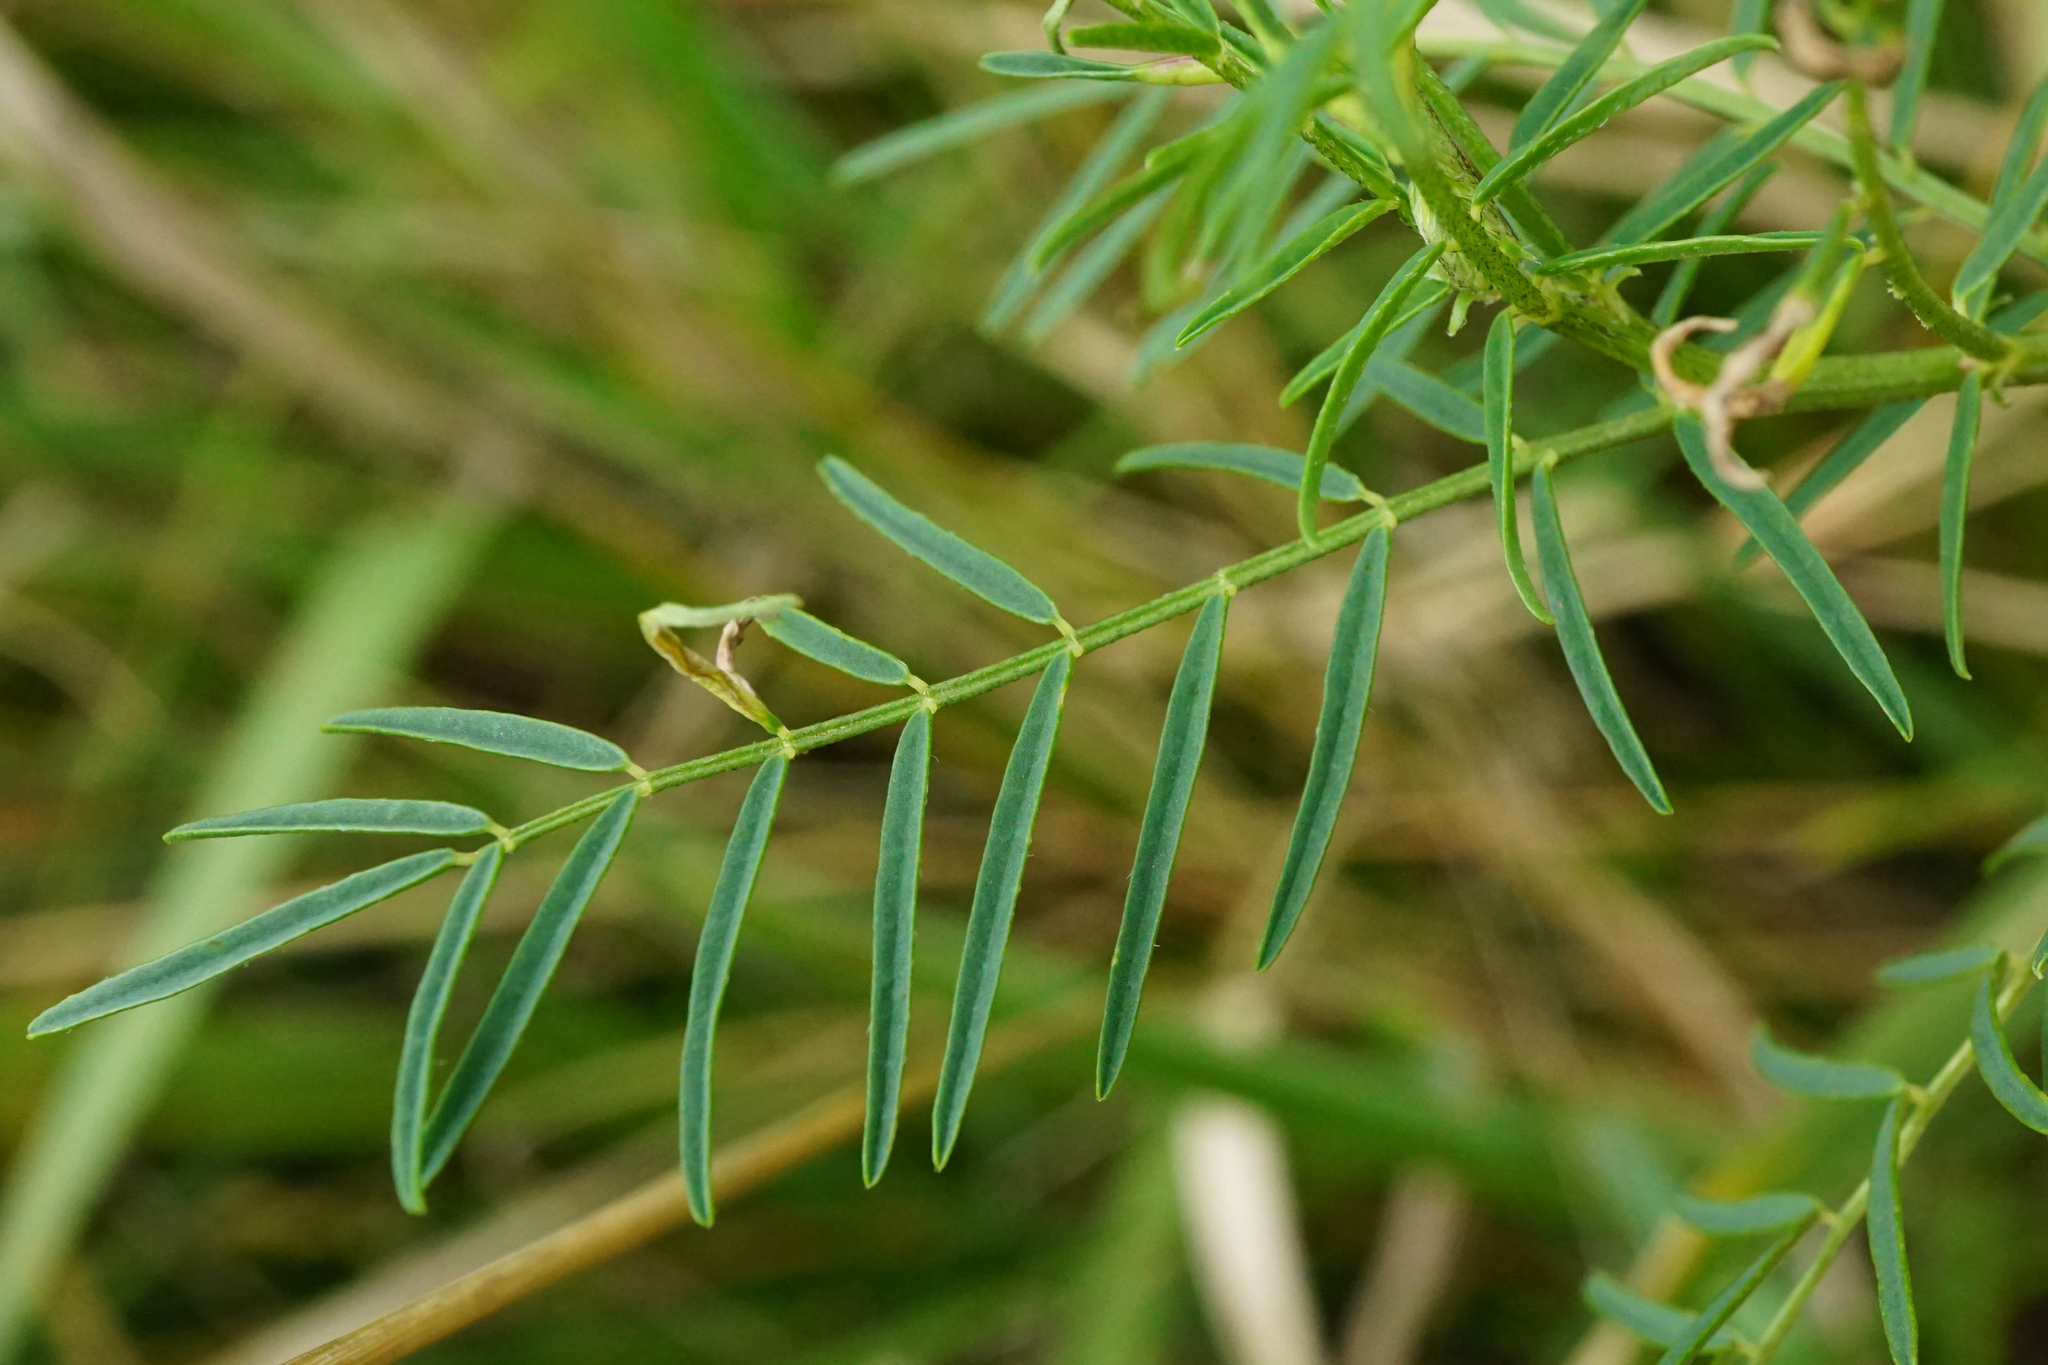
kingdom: Plantae
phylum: Tracheophyta
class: Magnoliopsida
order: Fabales
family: Fabaceae
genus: Astragalus
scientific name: Astragalus sulcatus
